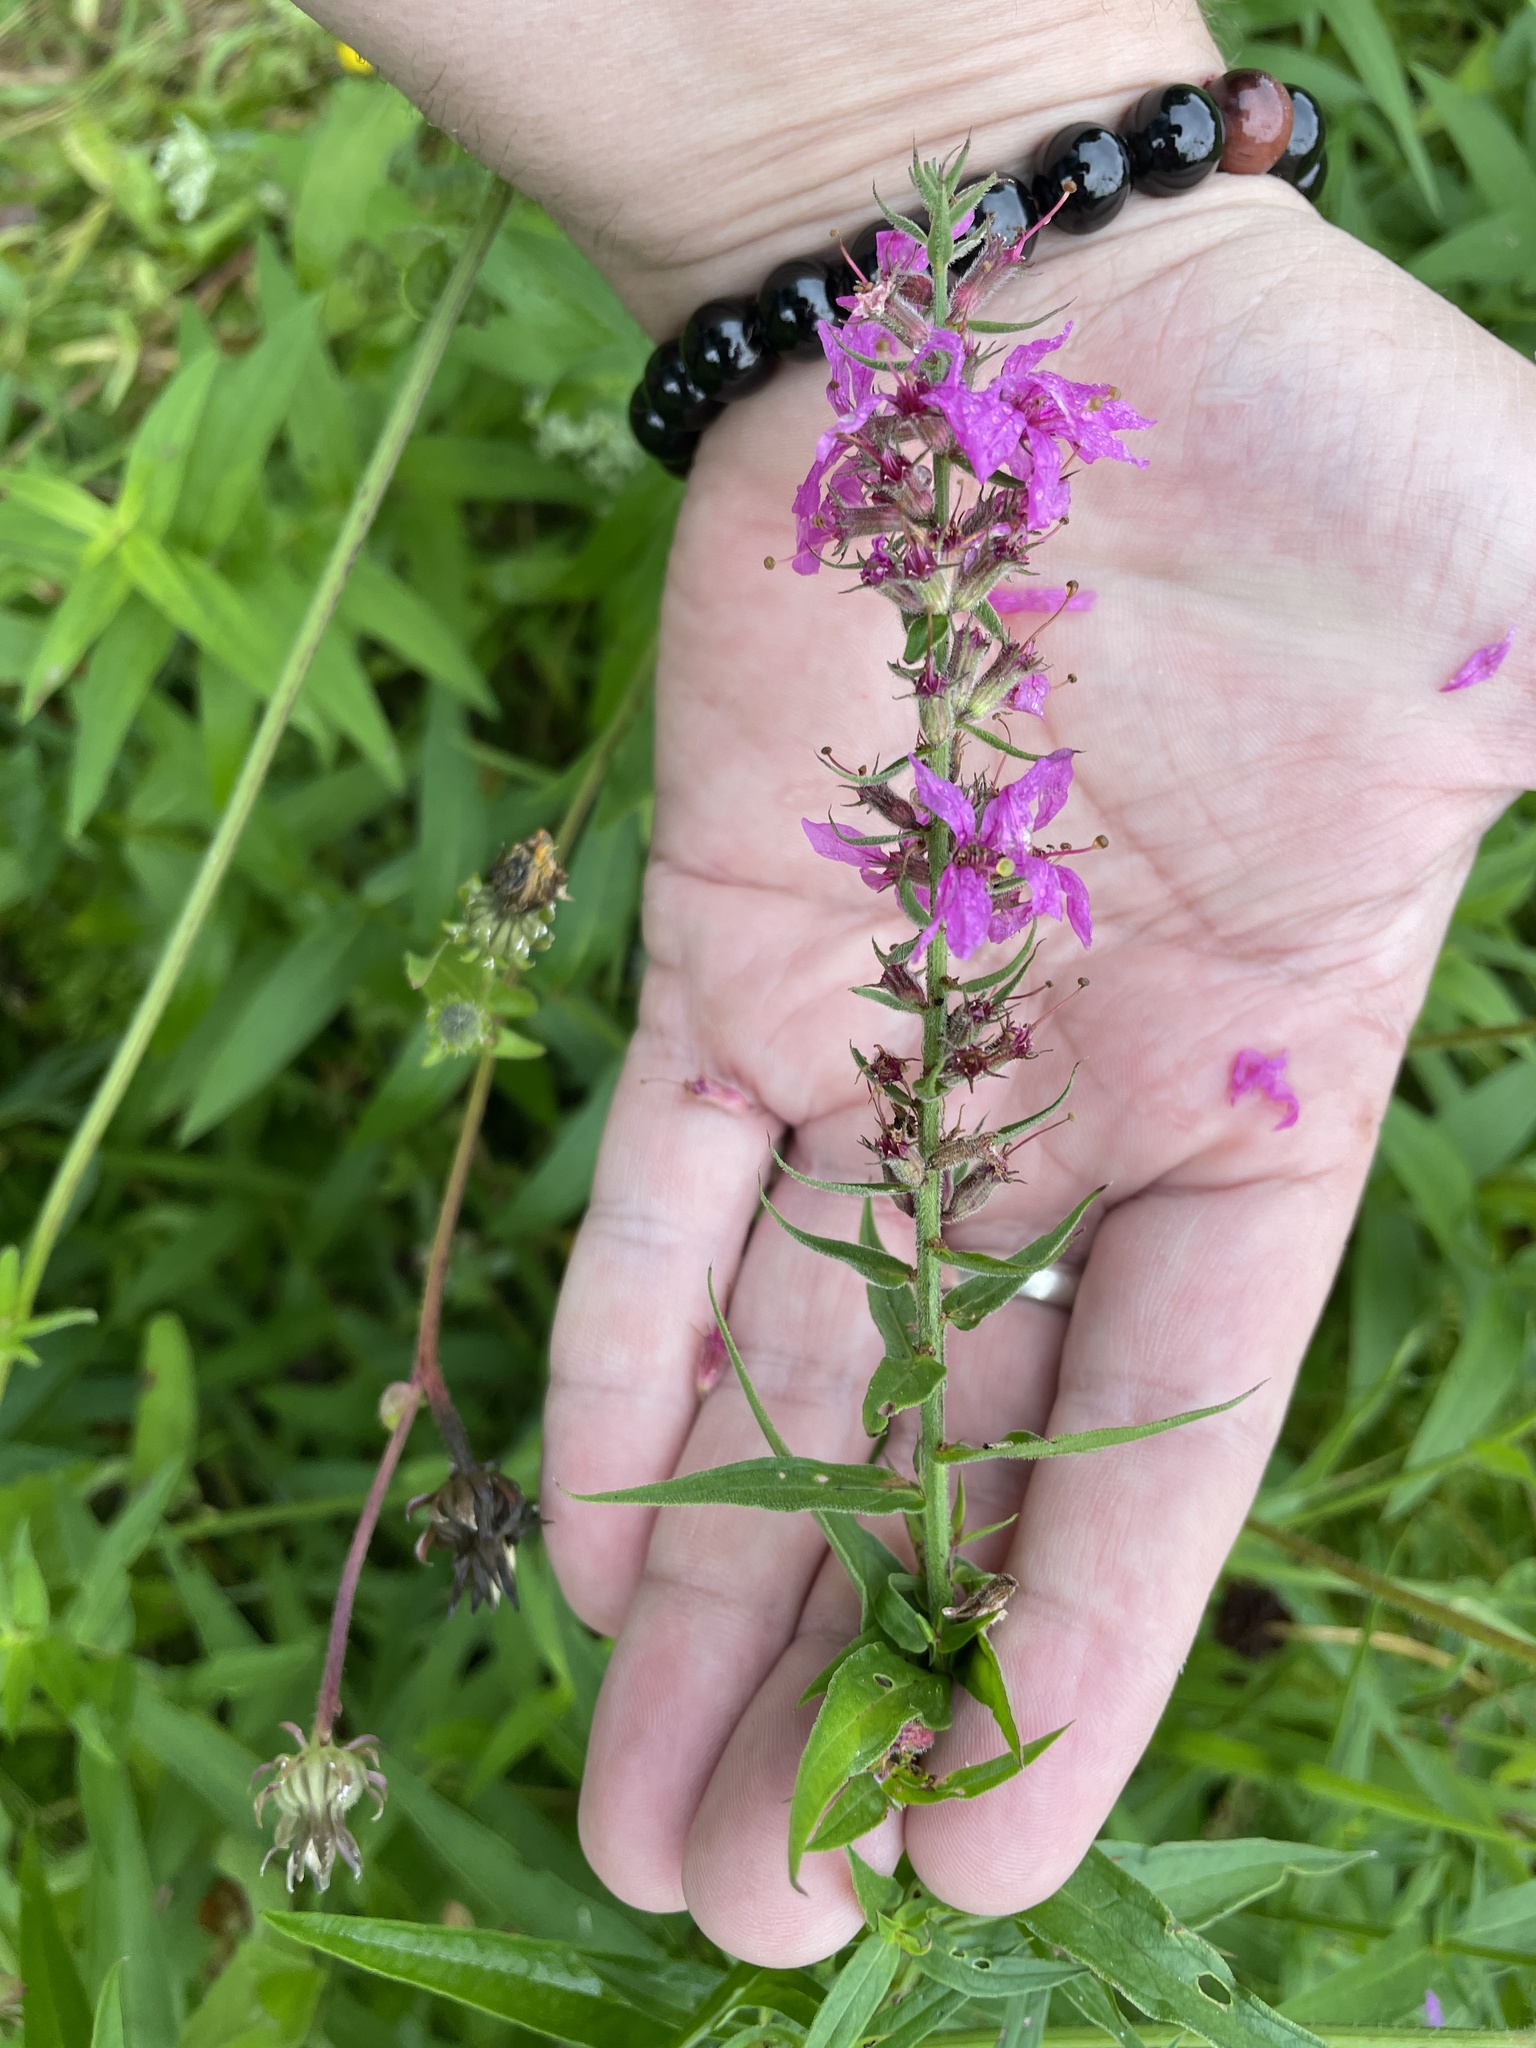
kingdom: Plantae
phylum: Tracheophyta
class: Magnoliopsida
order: Myrtales
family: Lythraceae
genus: Lythrum
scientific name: Lythrum salicaria
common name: Purple loosestrife
